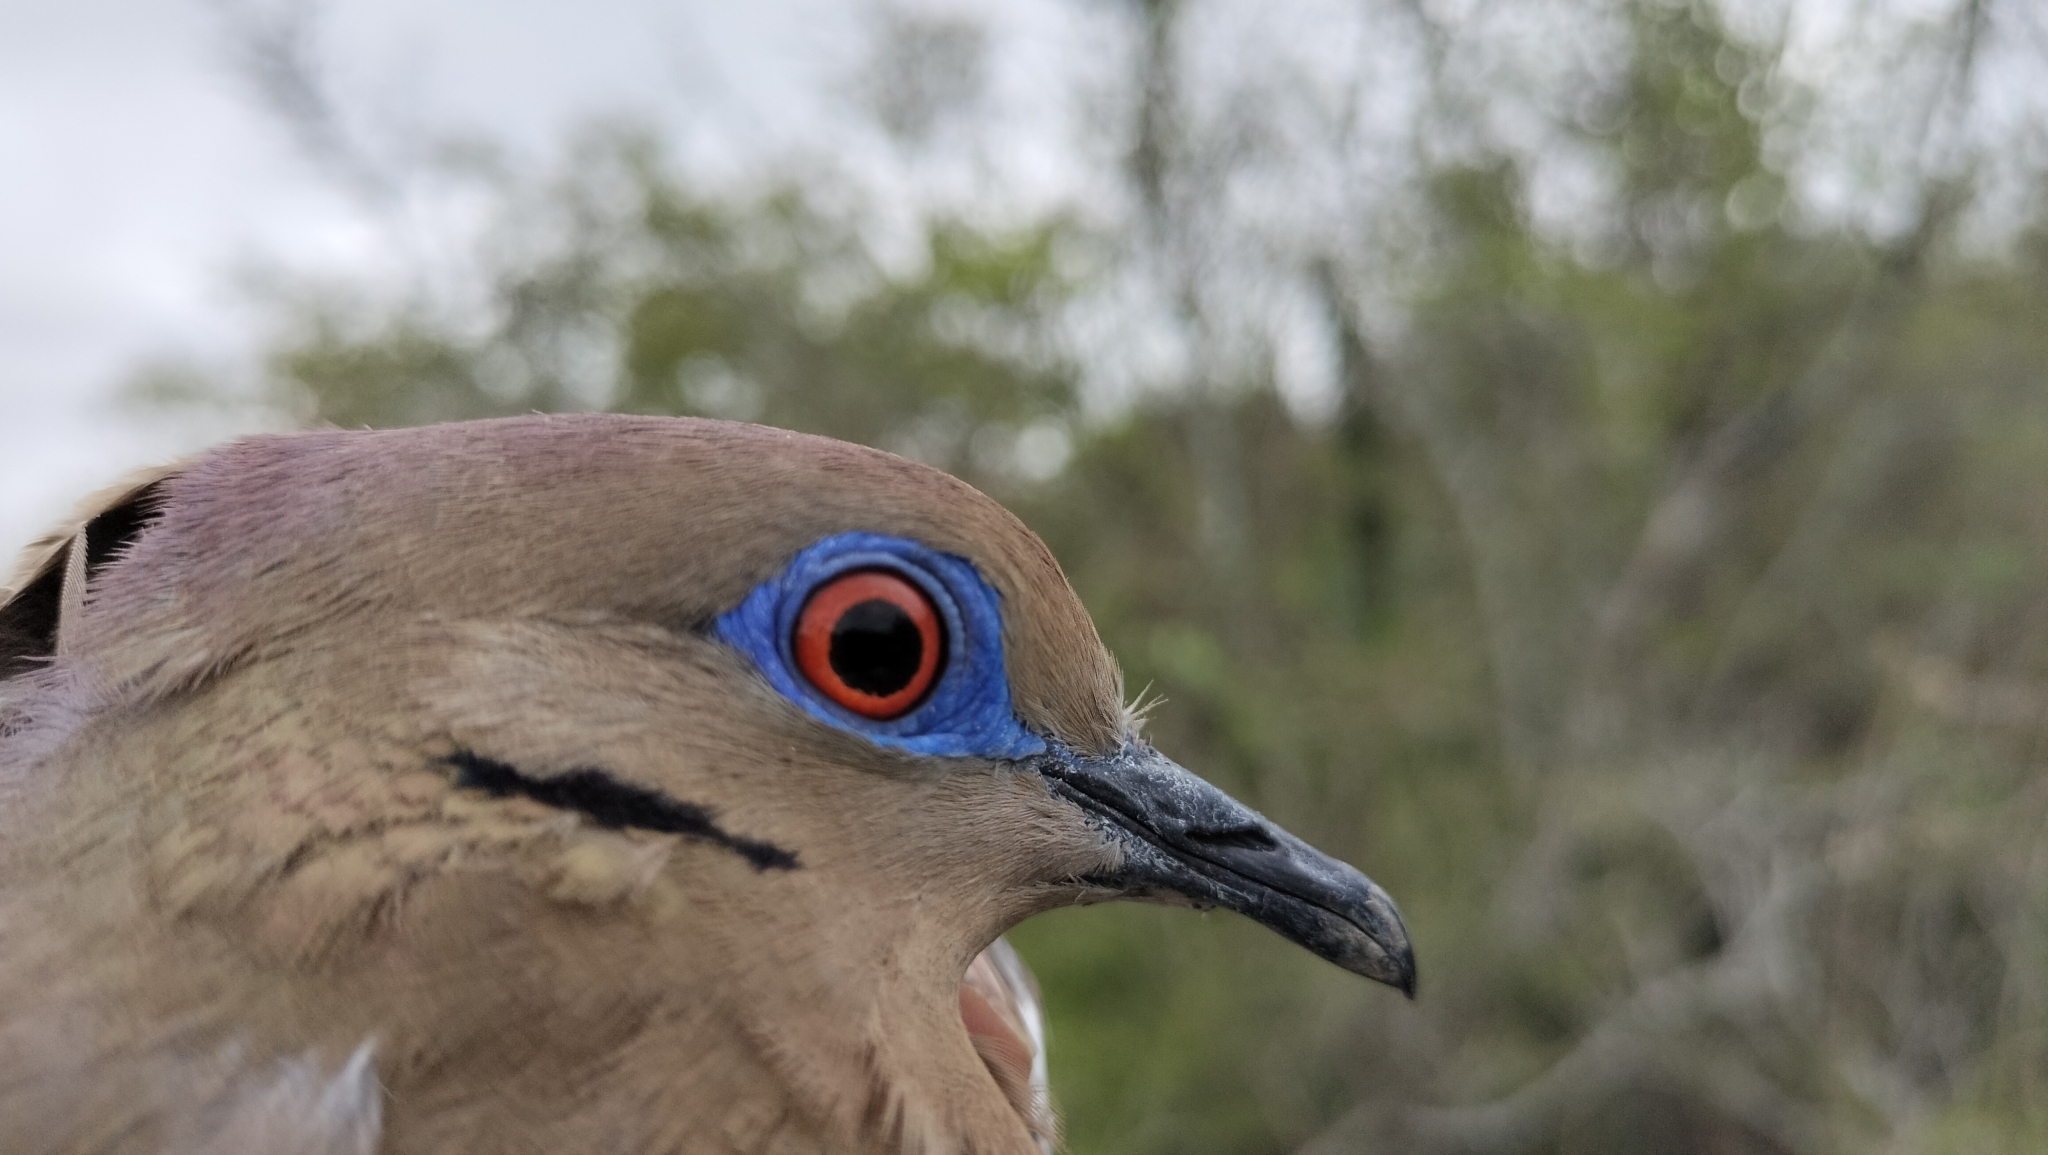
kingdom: Animalia
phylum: Chordata
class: Aves
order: Columbiformes
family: Columbidae
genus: Zenaida
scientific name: Zenaida asiatica
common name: White-winged dove
